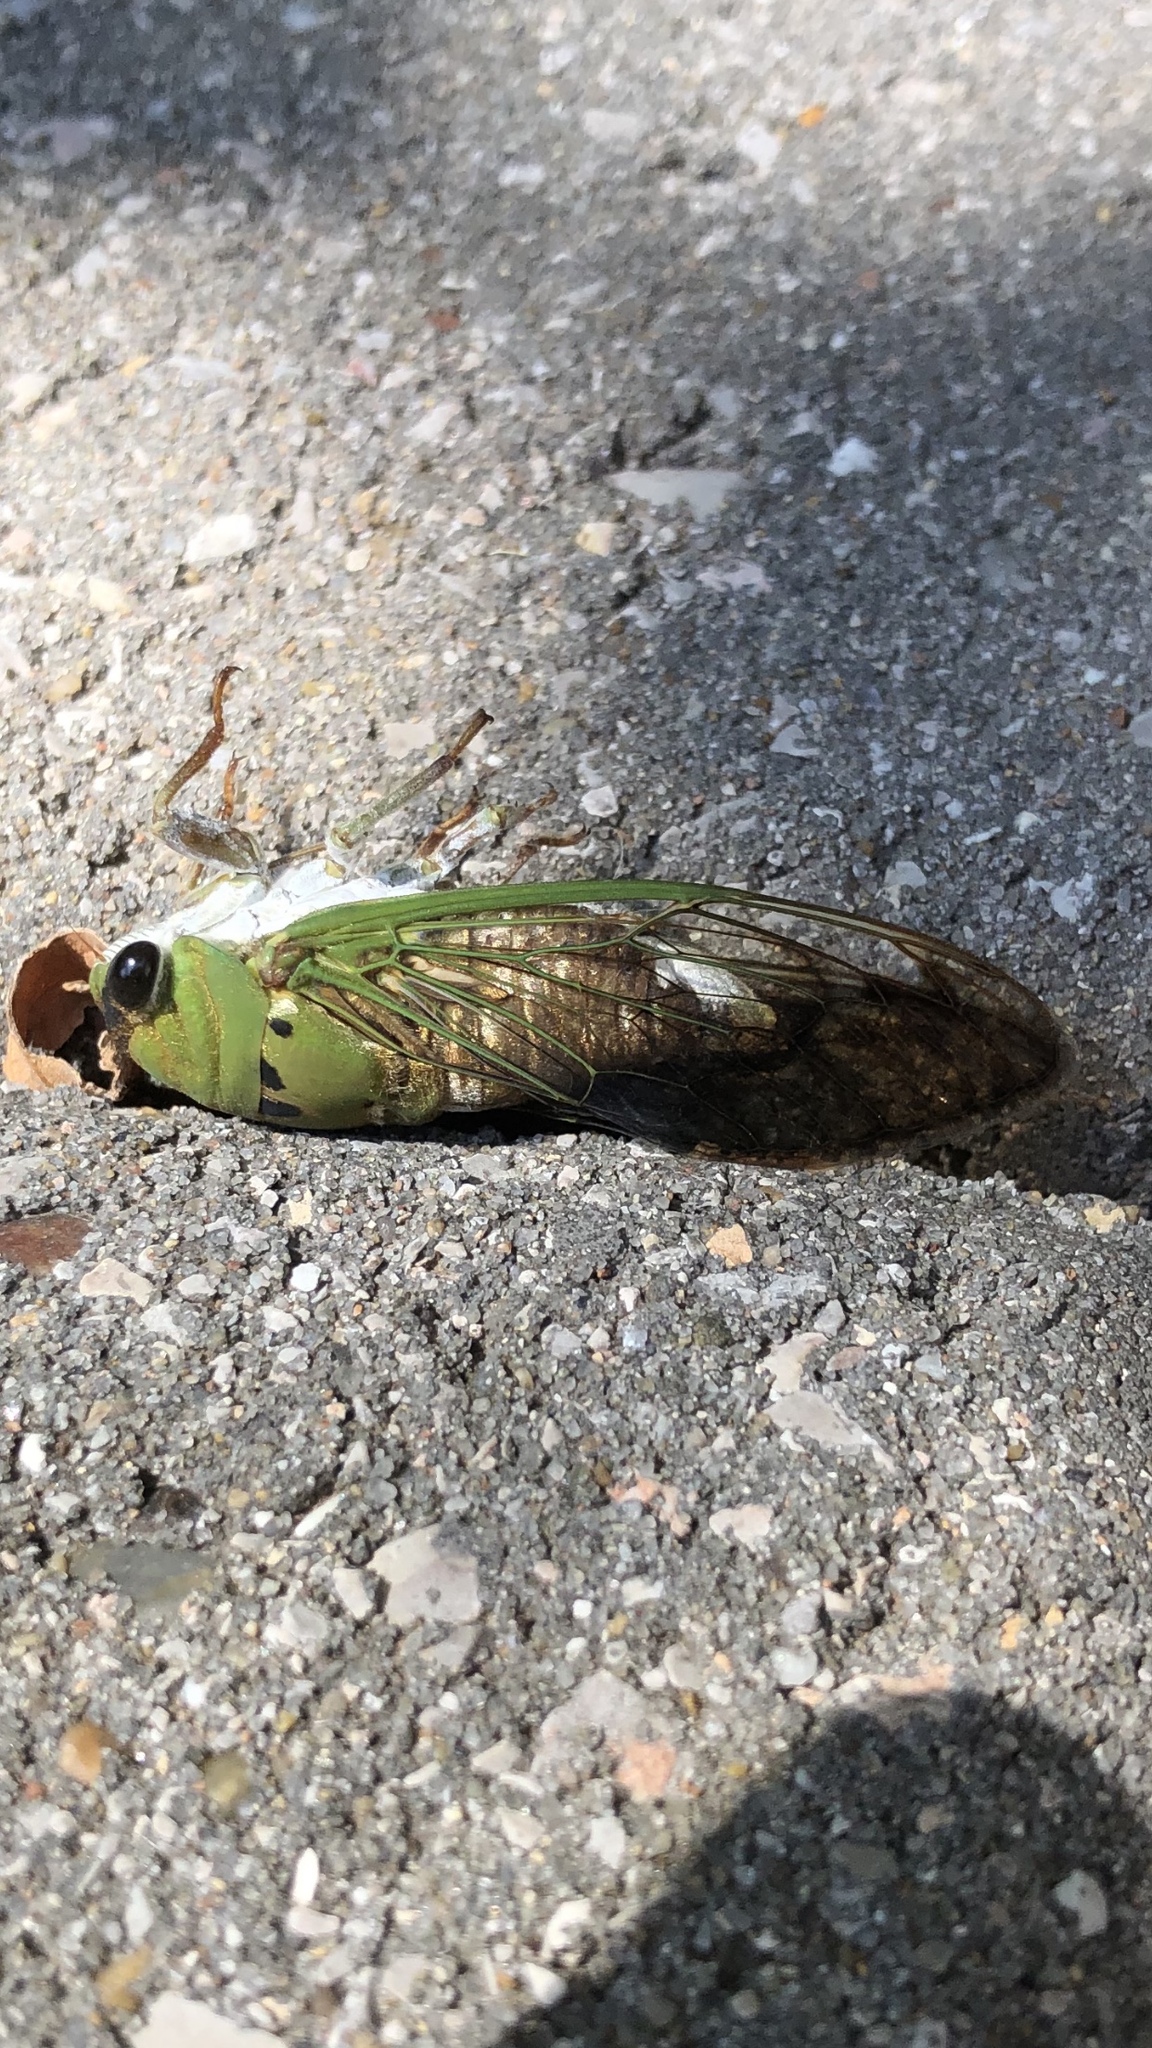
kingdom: Animalia
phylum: Arthropoda
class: Insecta
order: Hemiptera
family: Cicadidae
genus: Neotibicen
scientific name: Neotibicen superbus
